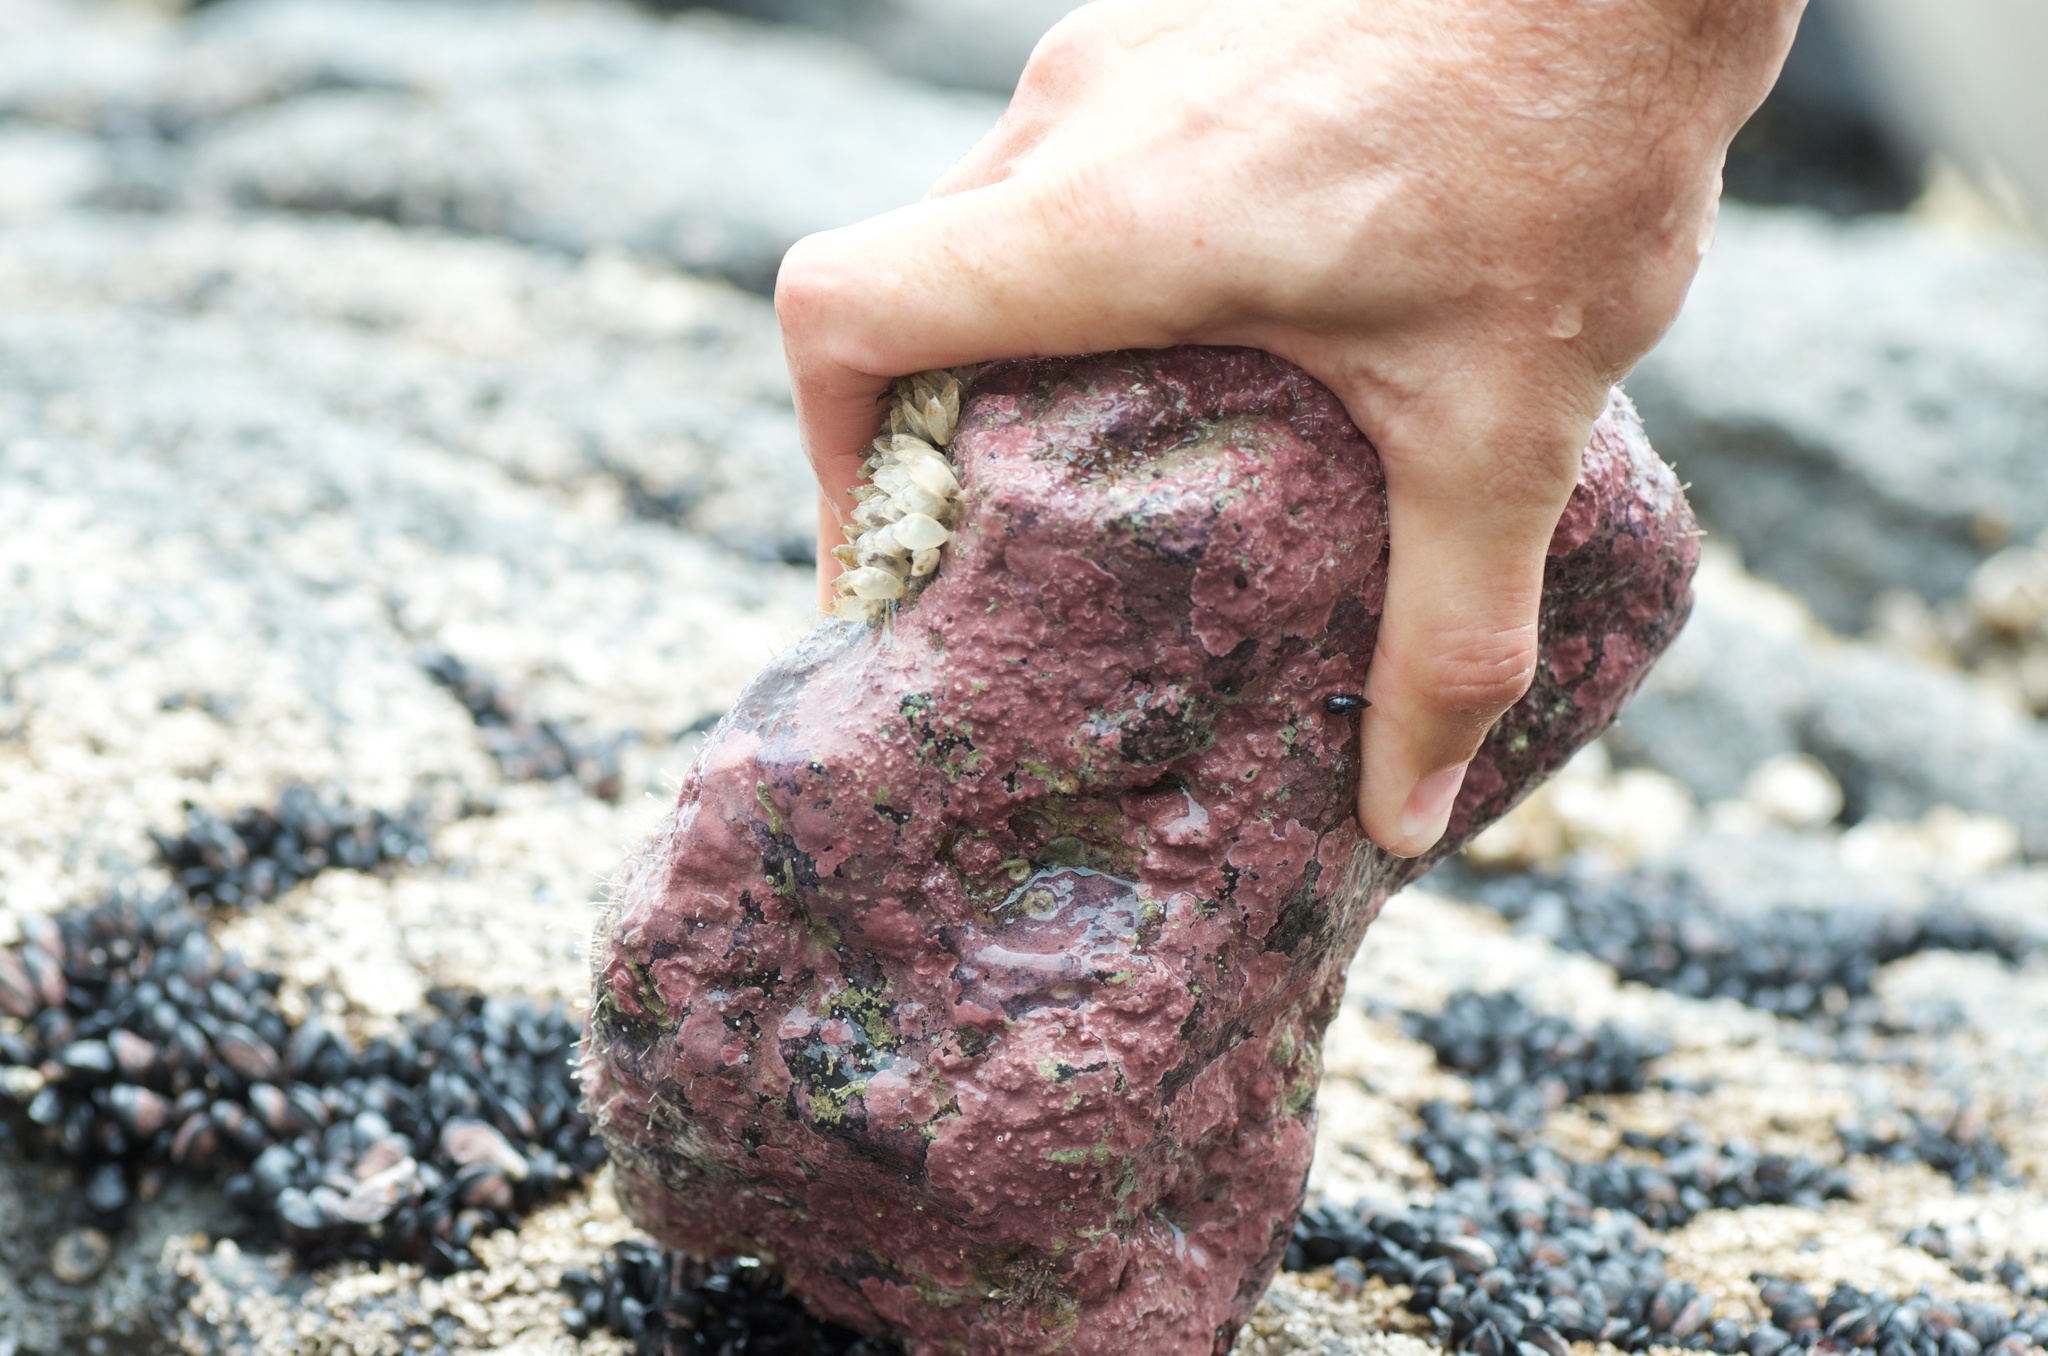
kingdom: Animalia
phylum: Mollusca
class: Gastropoda
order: Neogastropoda
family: Cominellidae
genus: Cominella
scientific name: Cominella maculosa
